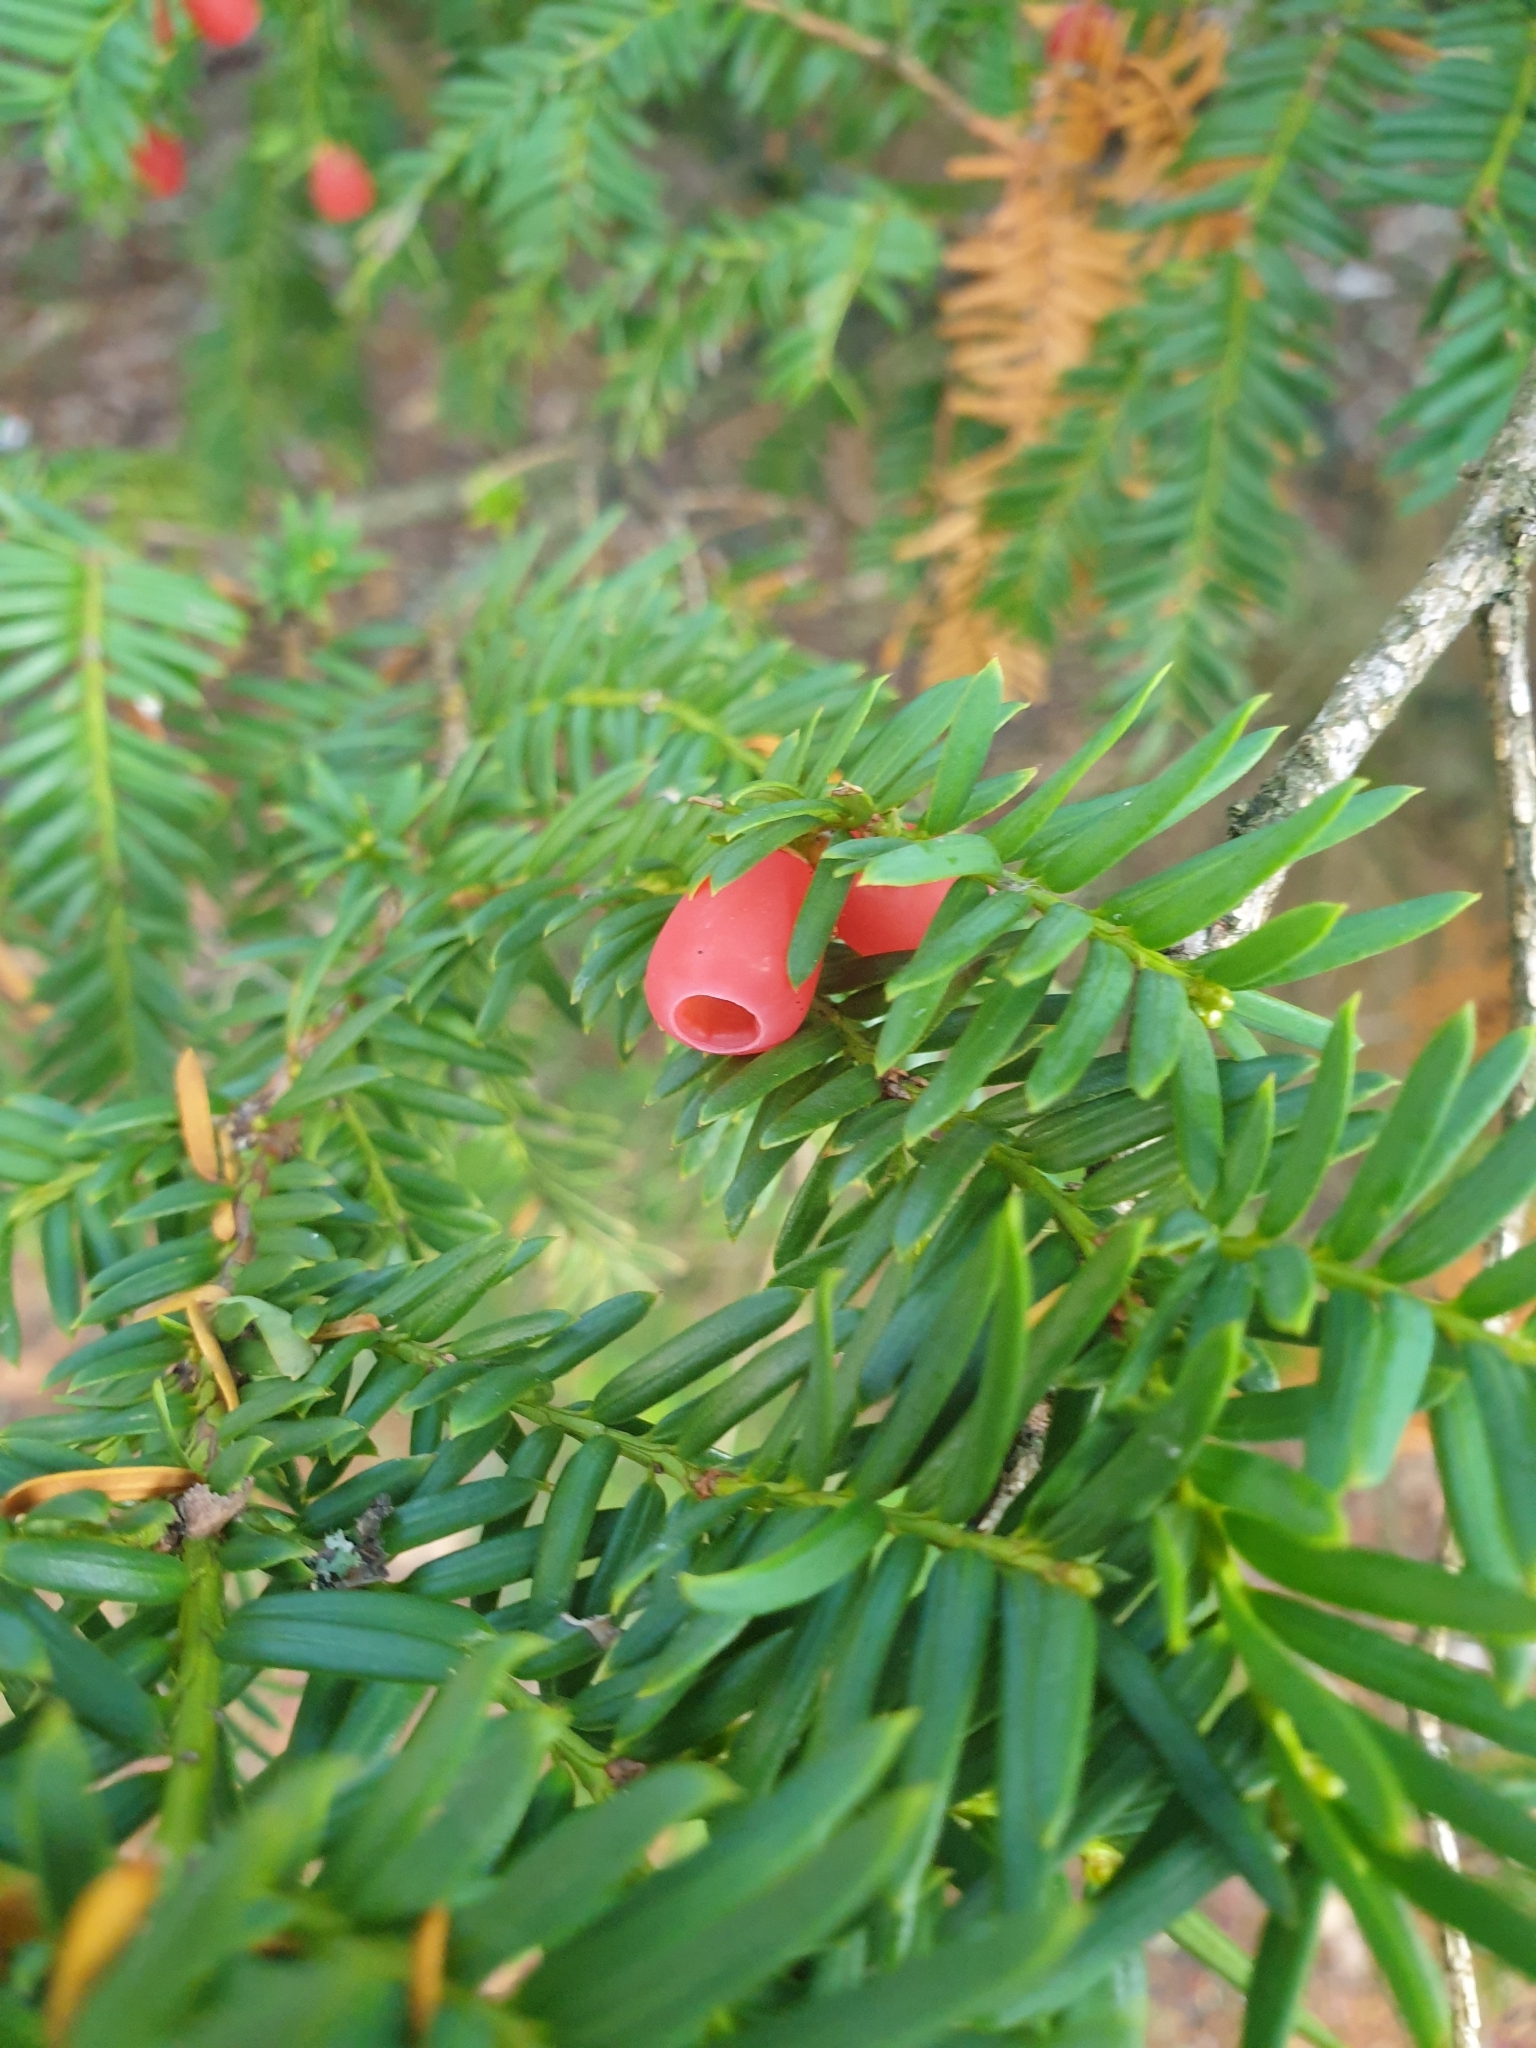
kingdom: Plantae
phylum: Tracheophyta
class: Pinopsida
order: Pinales
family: Taxaceae
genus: Taxus
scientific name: Taxus baccata
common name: Yew
